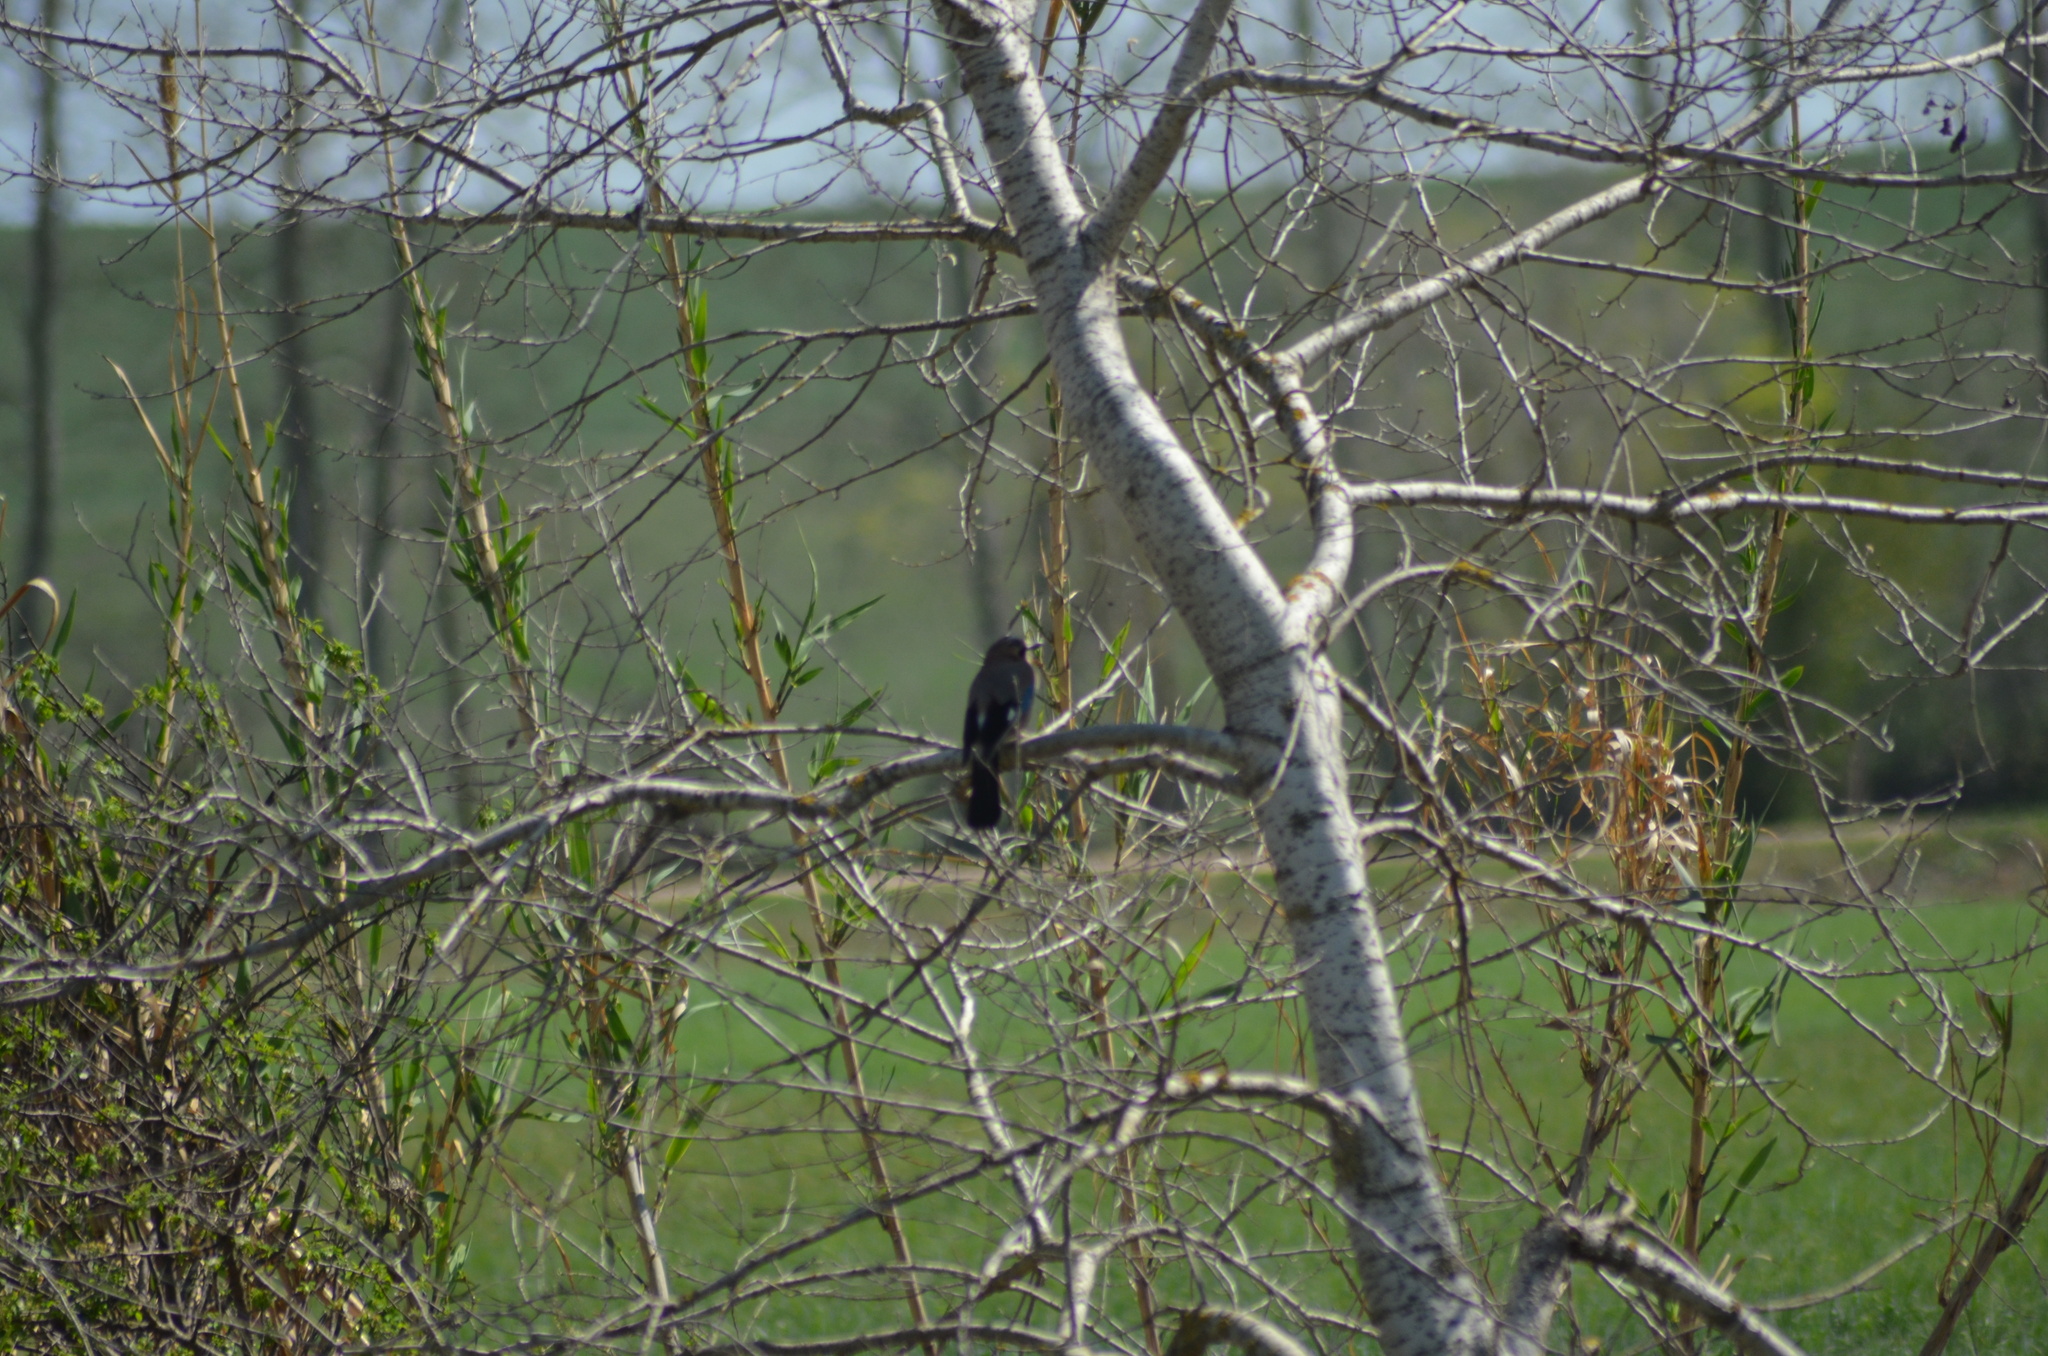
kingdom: Animalia
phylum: Chordata
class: Aves
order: Passeriformes
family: Corvidae
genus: Garrulus
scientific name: Garrulus glandarius
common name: Eurasian jay
